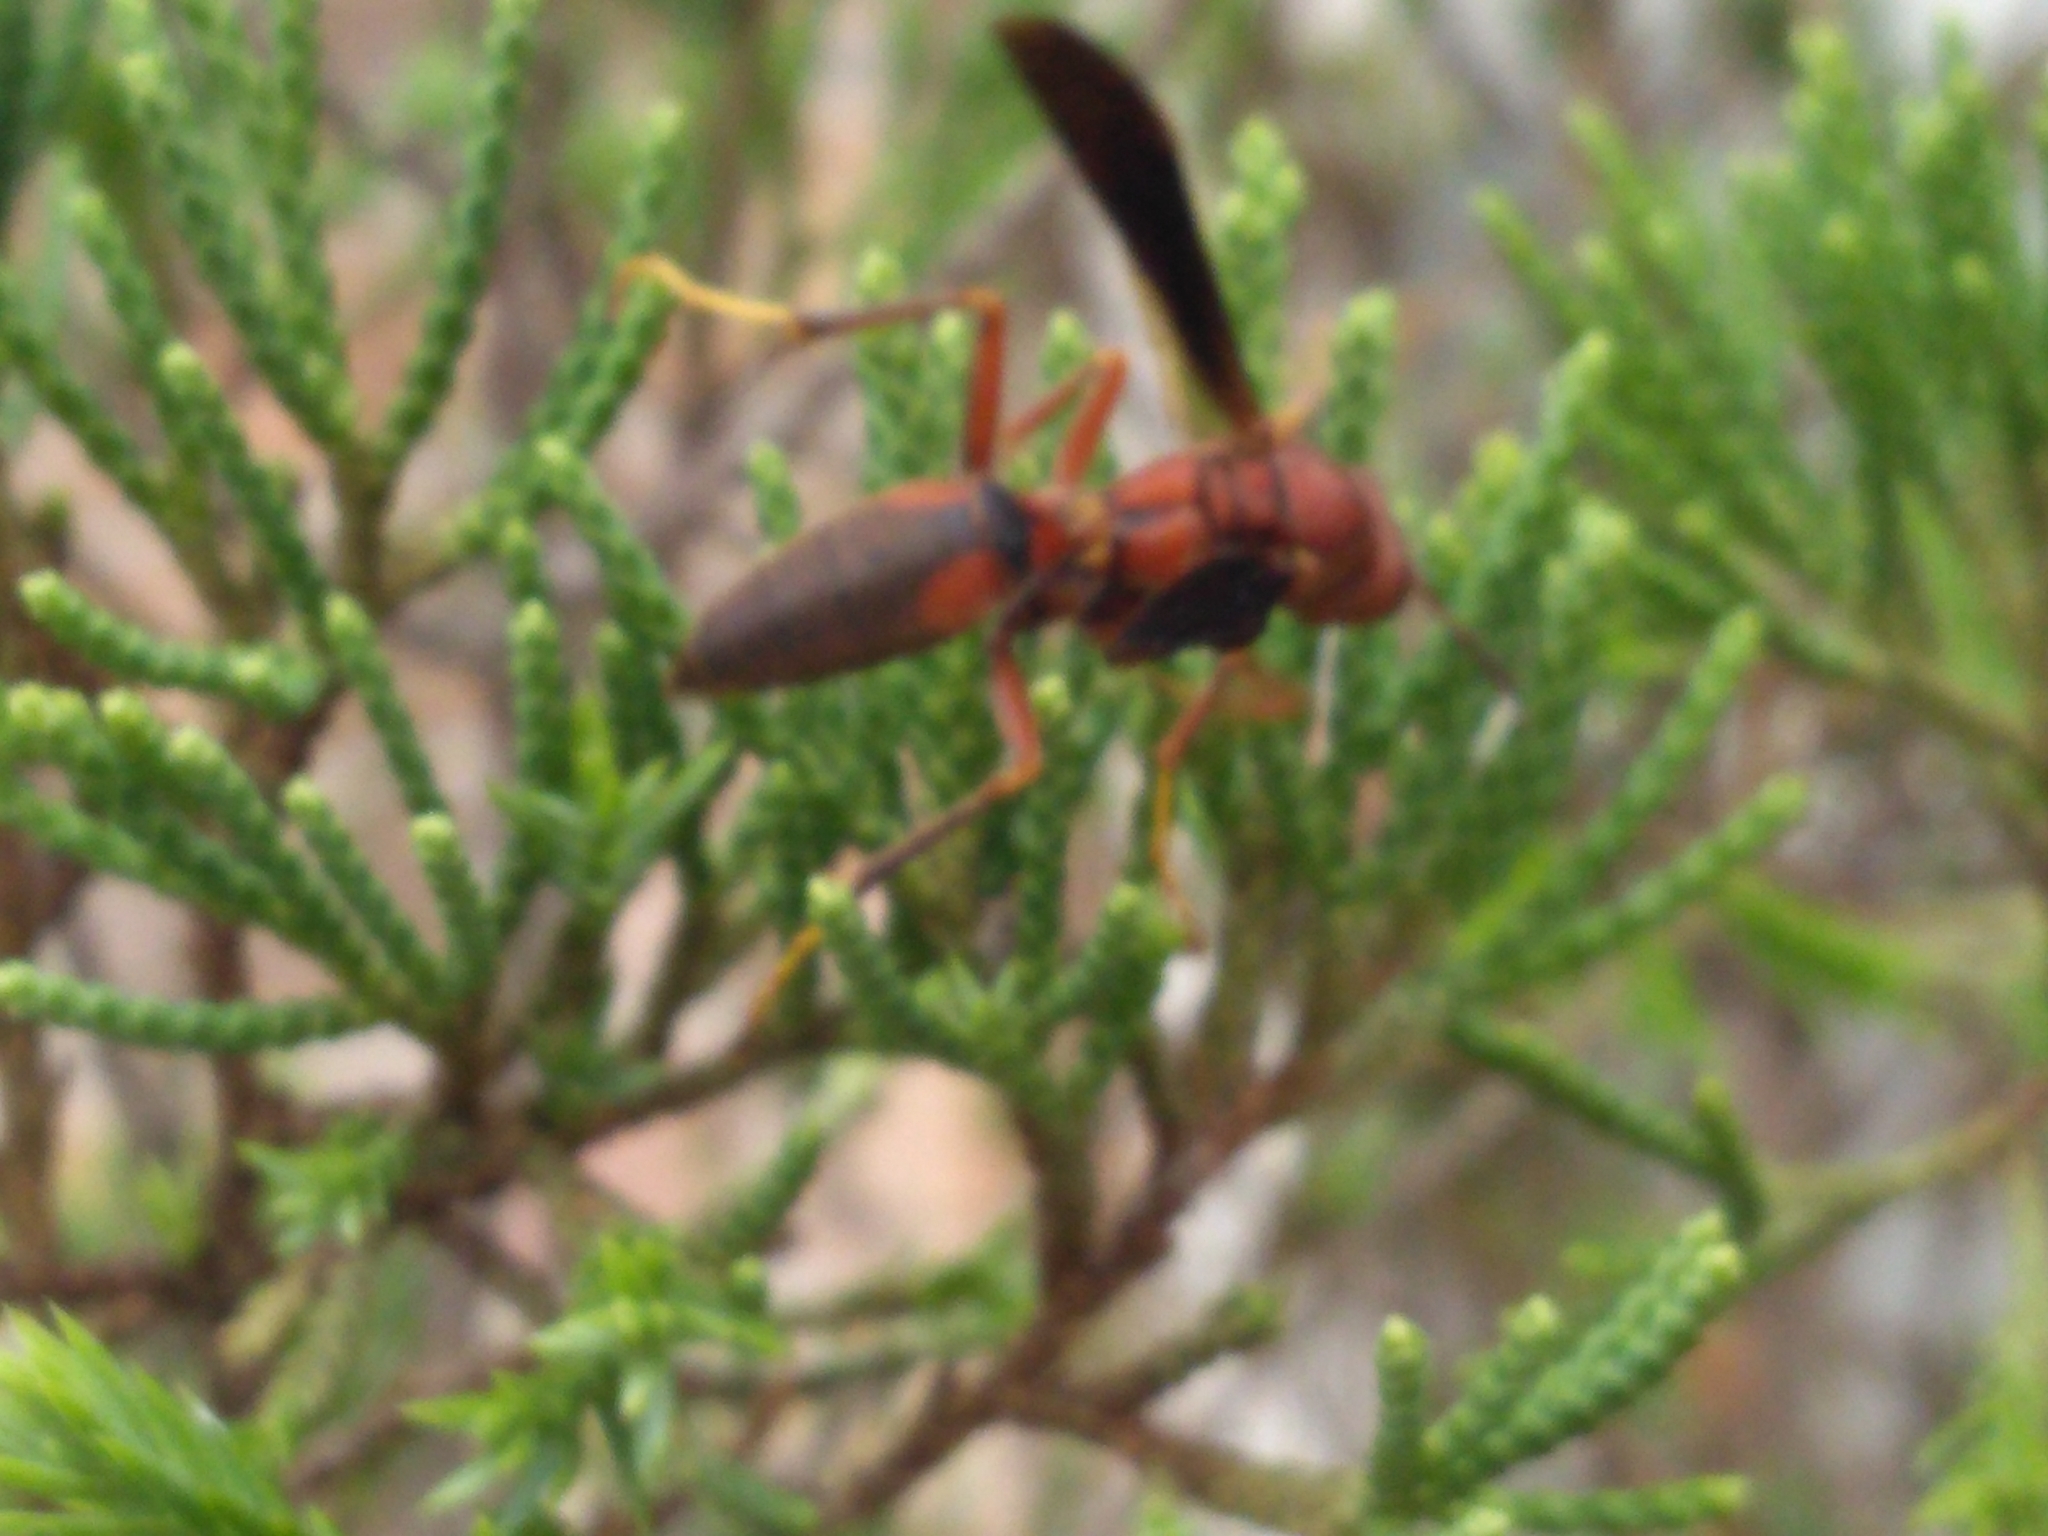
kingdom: Animalia
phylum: Arthropoda
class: Insecta
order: Hymenoptera
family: Eumenidae
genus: Polistes
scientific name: Polistes metricus
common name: Metric paper wasp
